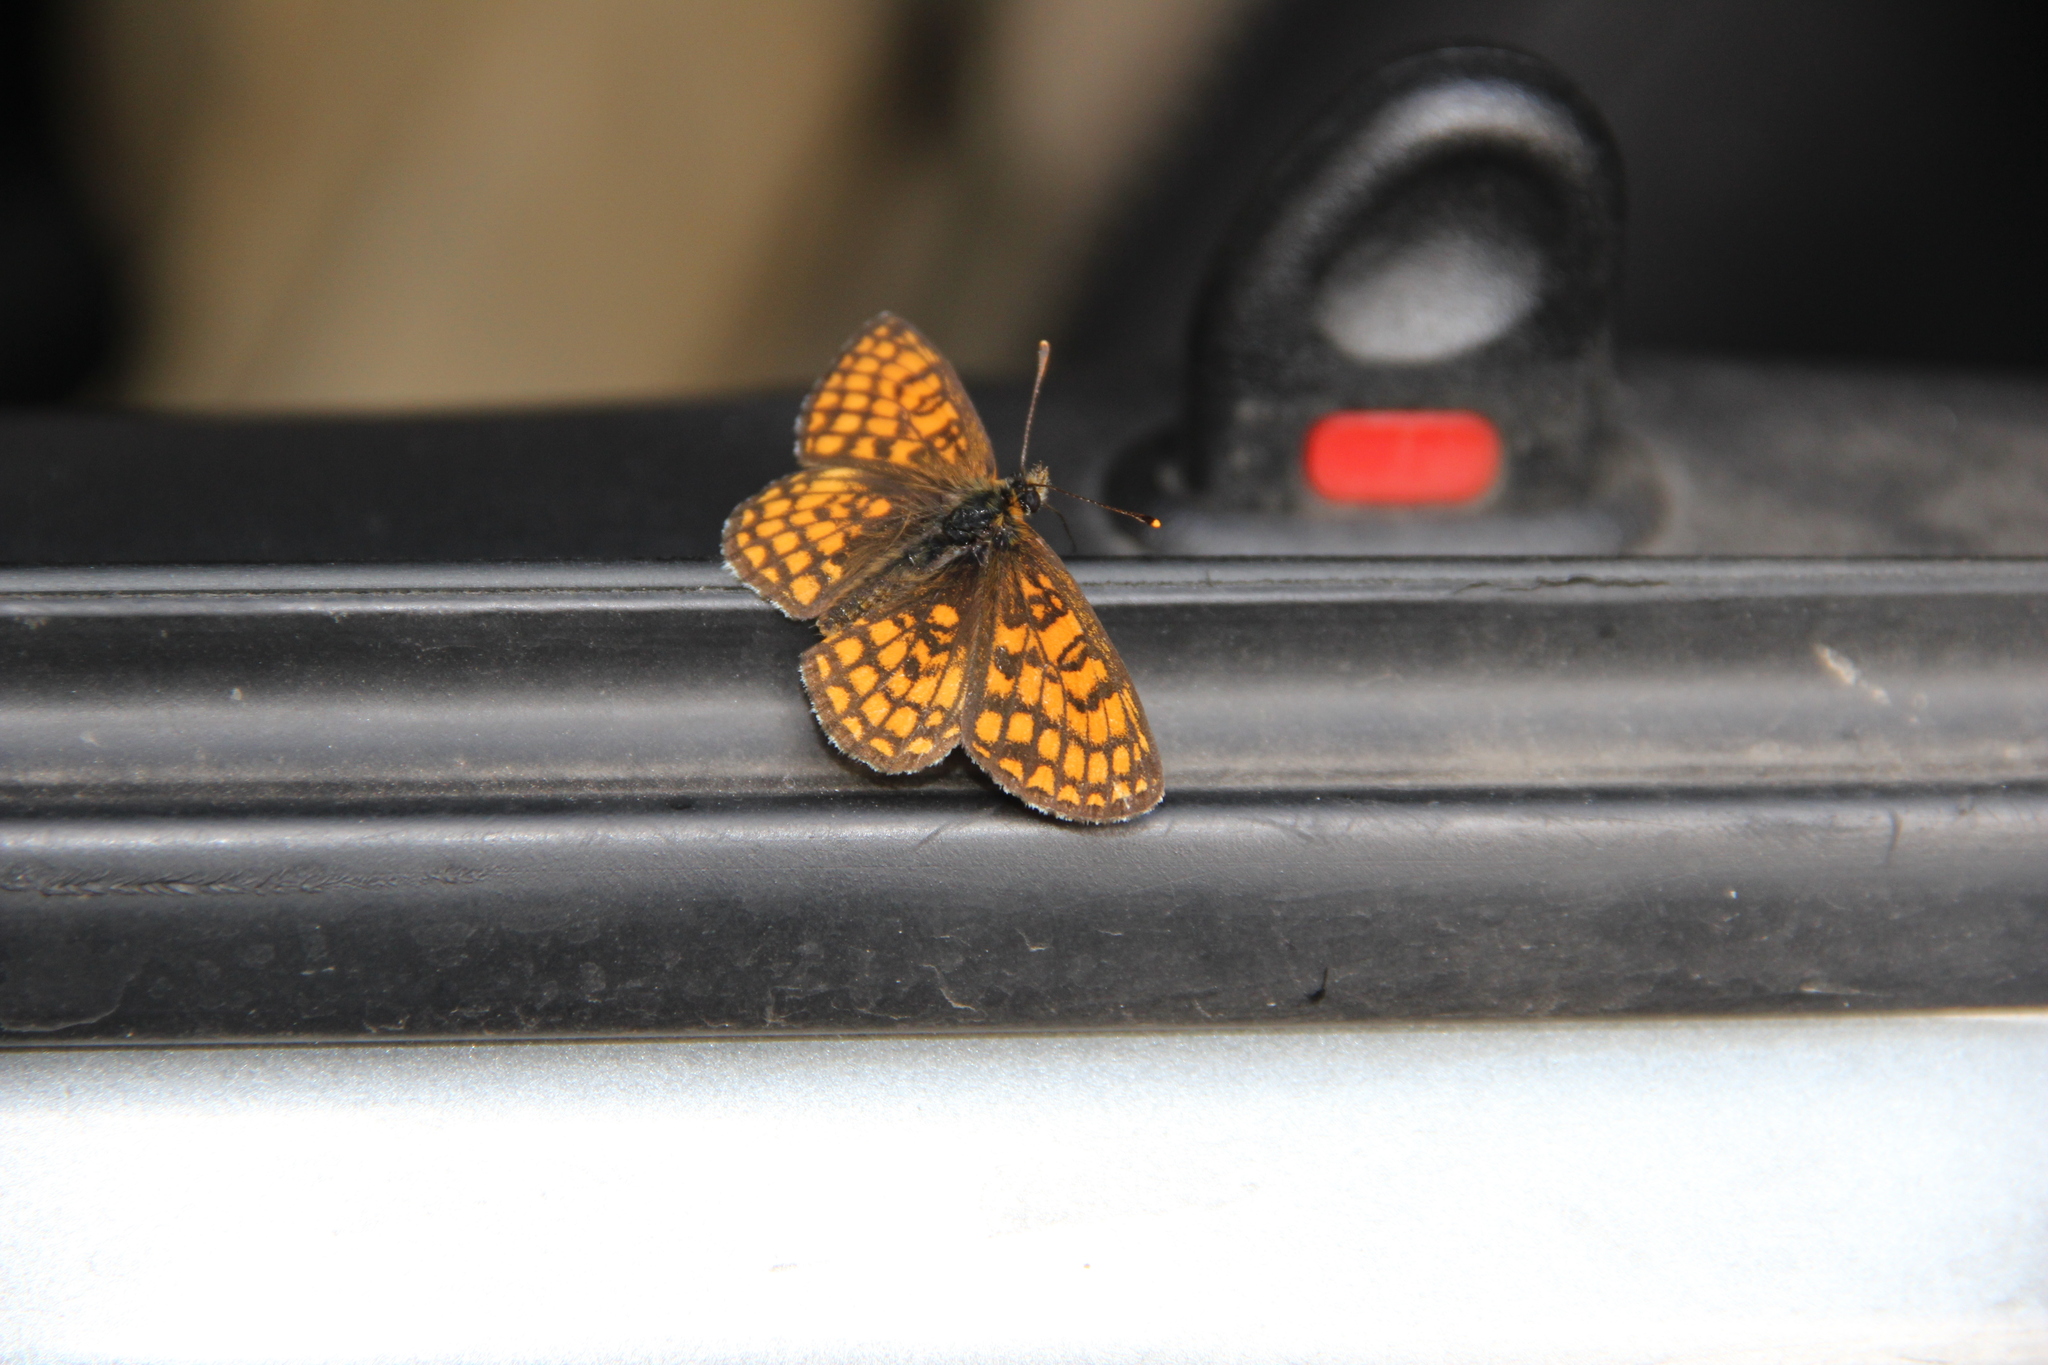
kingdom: Animalia
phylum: Arthropoda
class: Insecta
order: Lepidoptera
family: Nymphalidae
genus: Melitaea
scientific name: Melitaea athalia
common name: Heath fritillary
